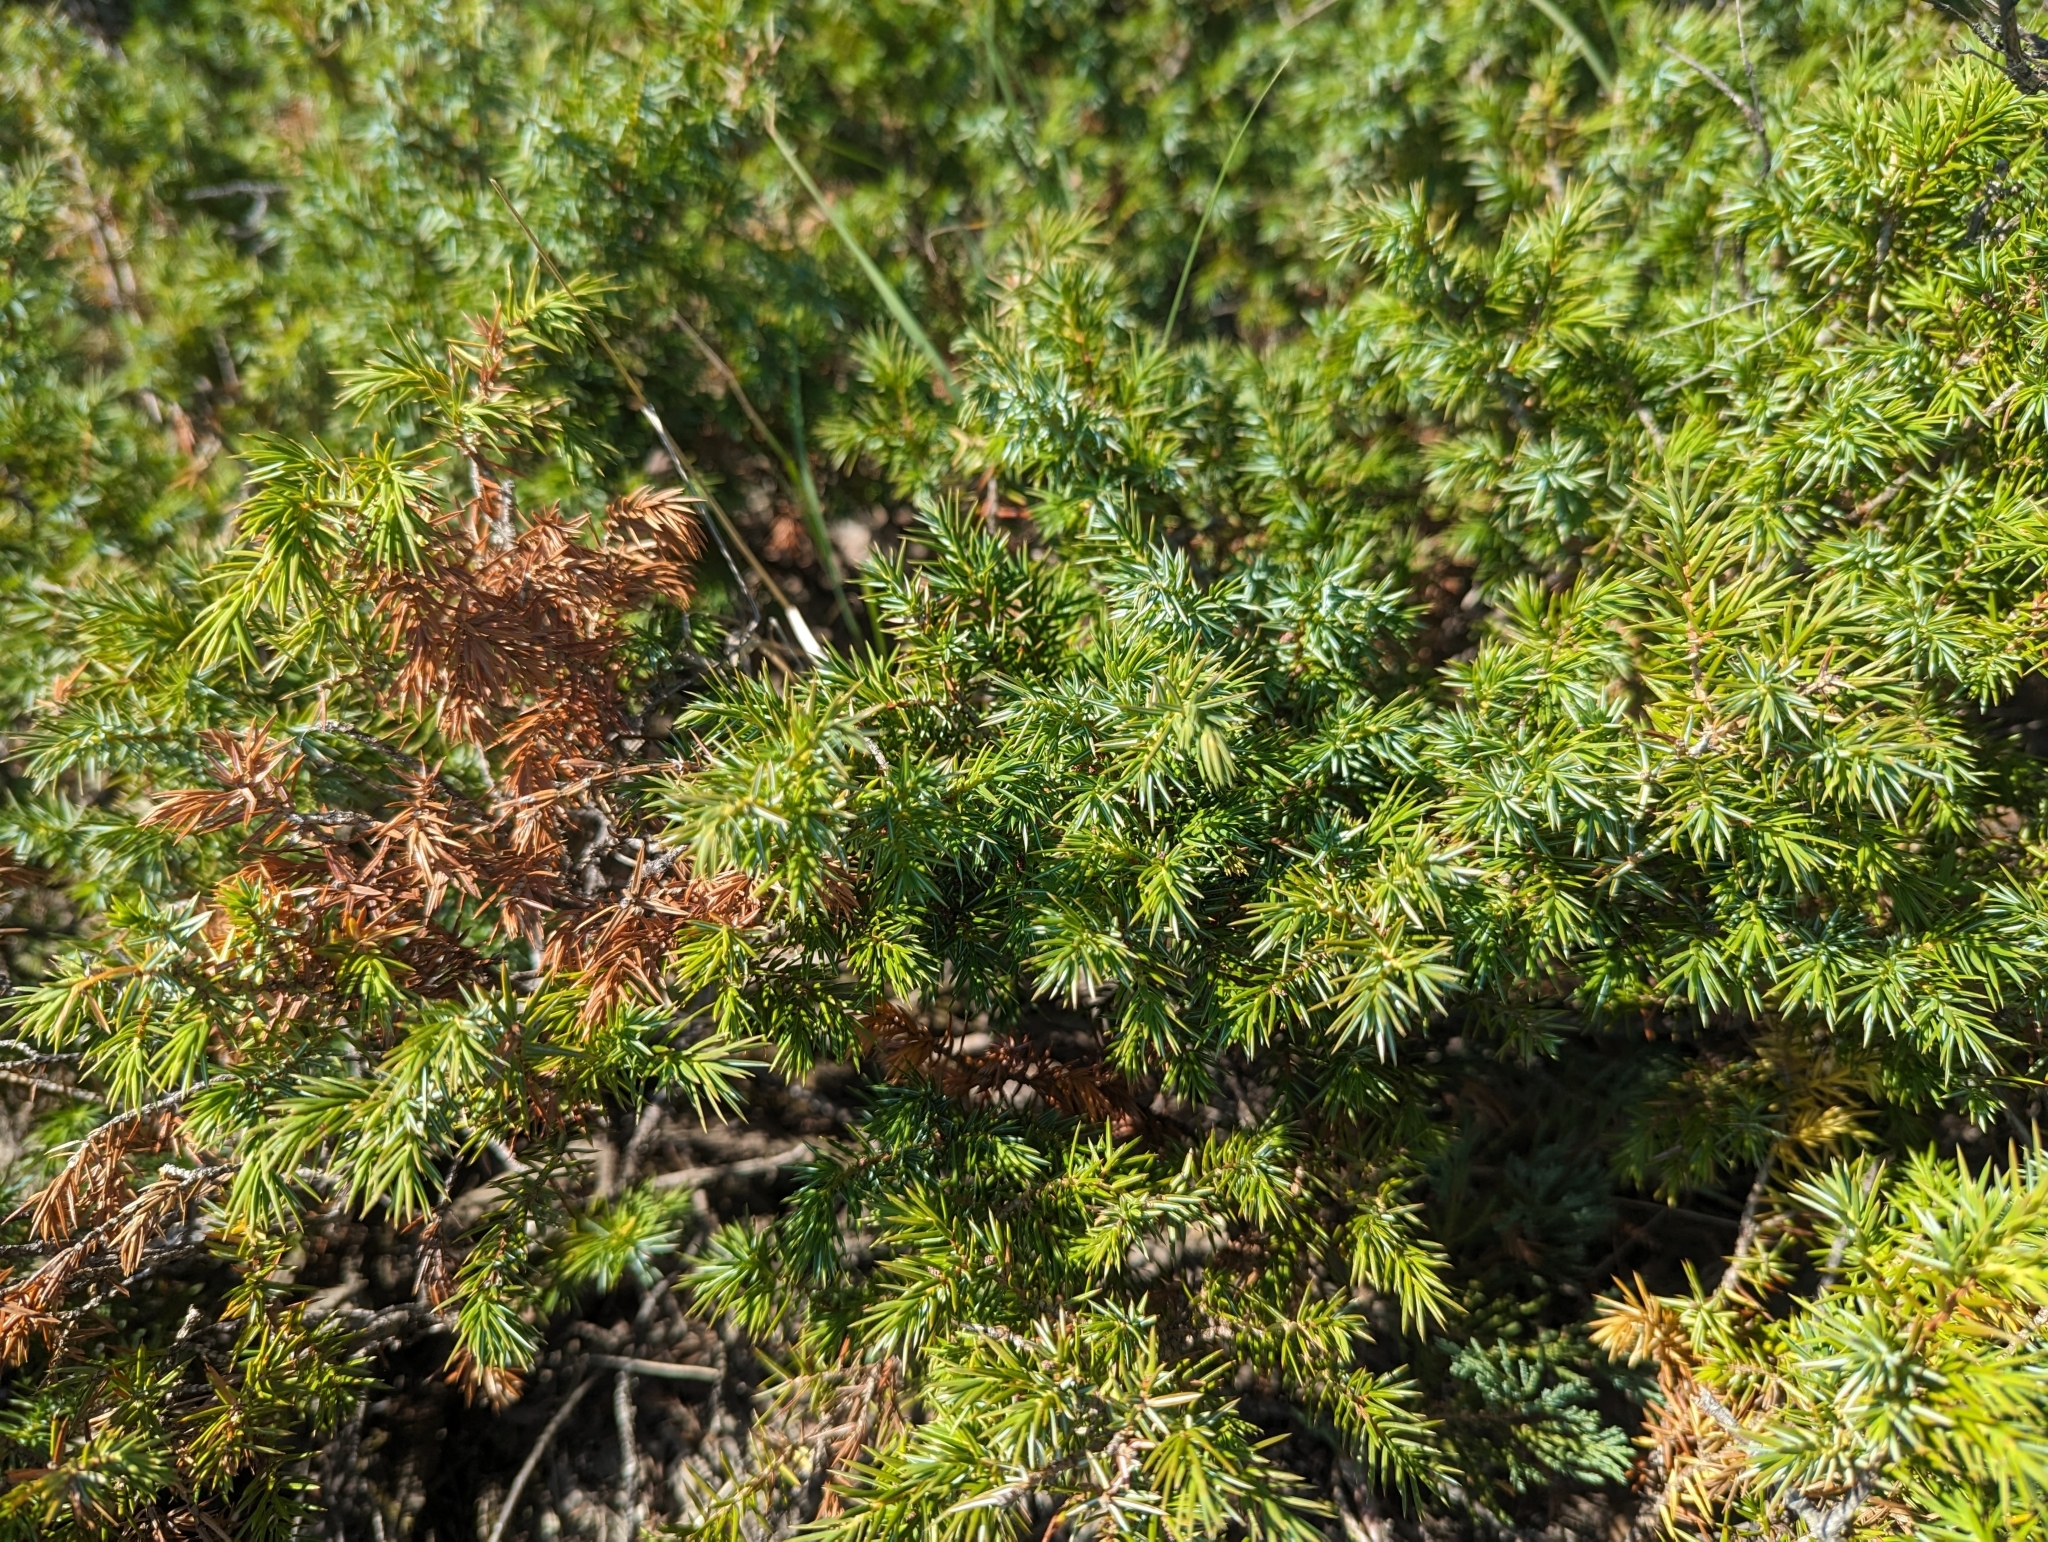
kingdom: Plantae
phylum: Tracheophyta
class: Pinopsida
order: Pinales
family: Cupressaceae
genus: Juniperus
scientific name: Juniperus communis
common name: Common juniper
